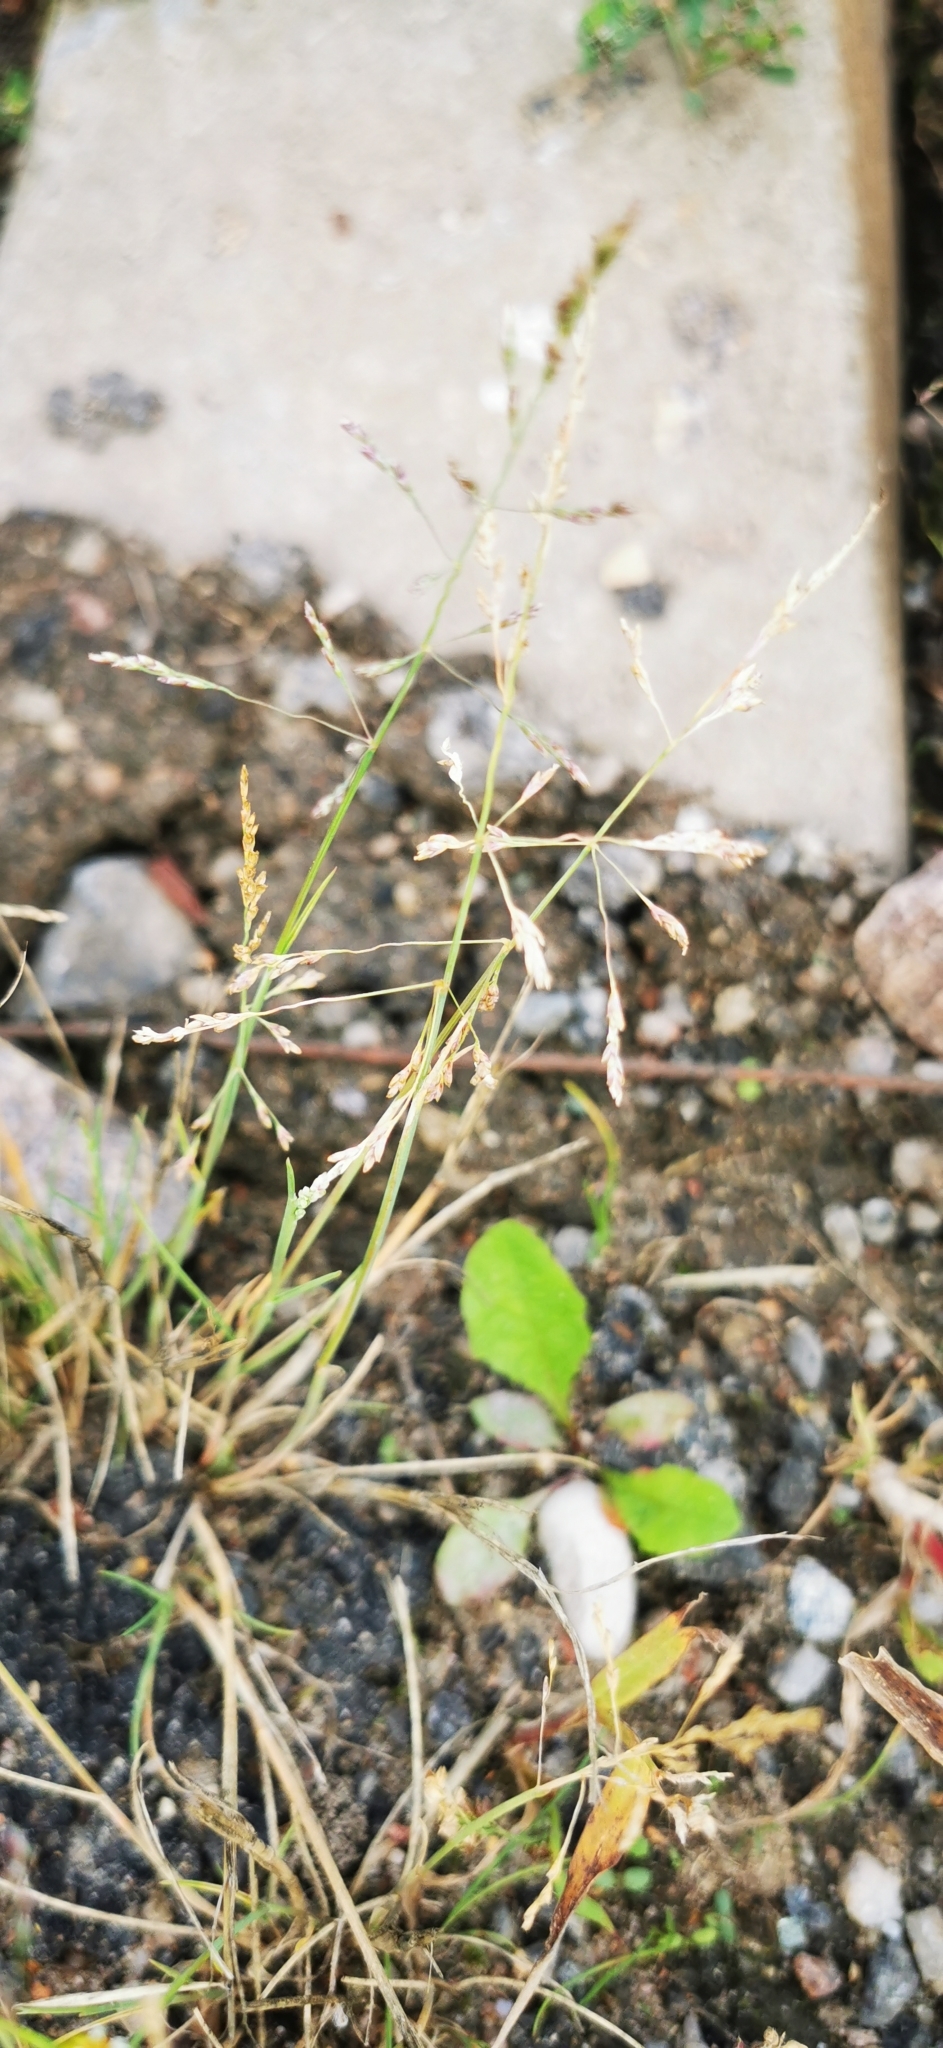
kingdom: Plantae
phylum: Tracheophyta
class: Liliopsida
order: Poales
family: Poaceae
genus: Puccinellia
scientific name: Puccinellia distans
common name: Weeping alkaligrass
